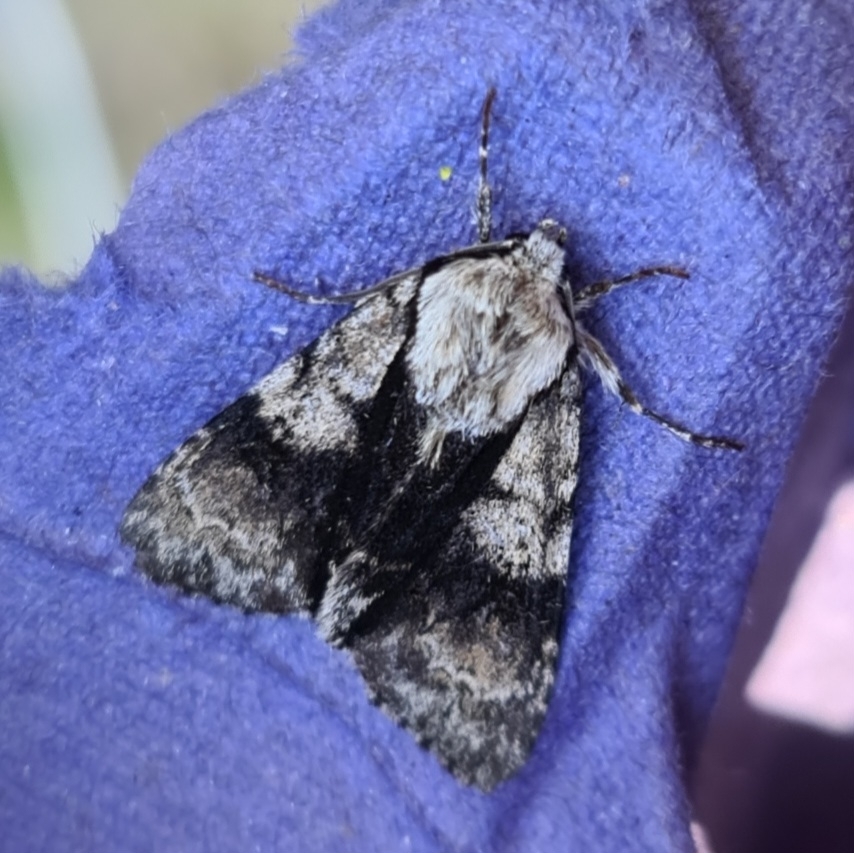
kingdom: Animalia
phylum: Arthropoda
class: Insecta
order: Lepidoptera
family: Noctuidae
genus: Acronicta
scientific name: Acronicta alni
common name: Alder moth
